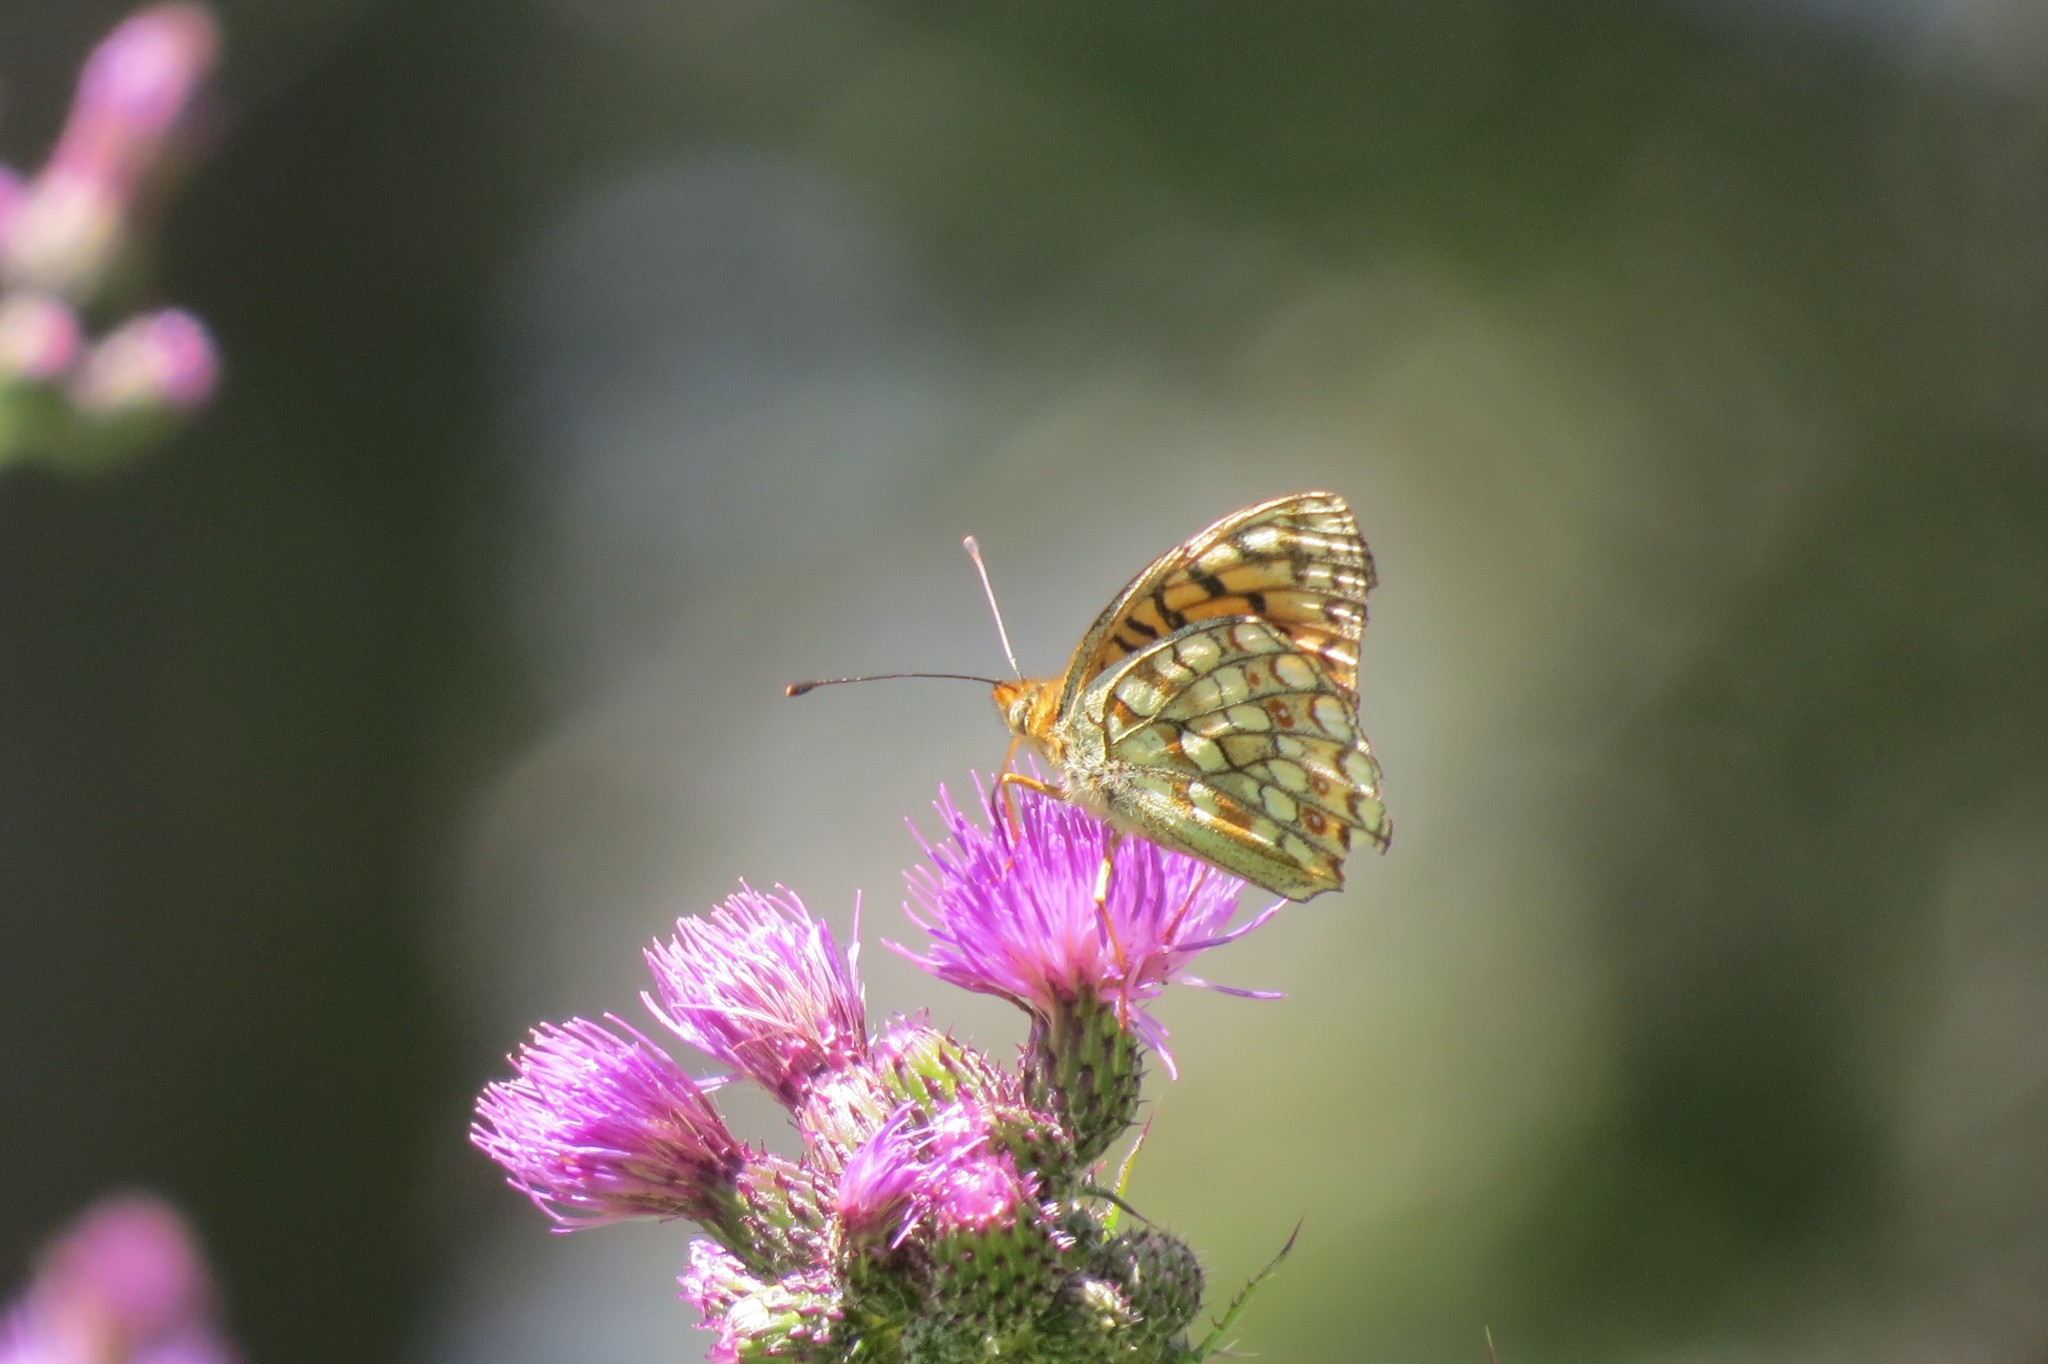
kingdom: Animalia
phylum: Arthropoda
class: Insecta
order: Lepidoptera
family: Nymphalidae
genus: Fabriciana
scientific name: Fabriciana niobe
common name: Niobe fritillary
